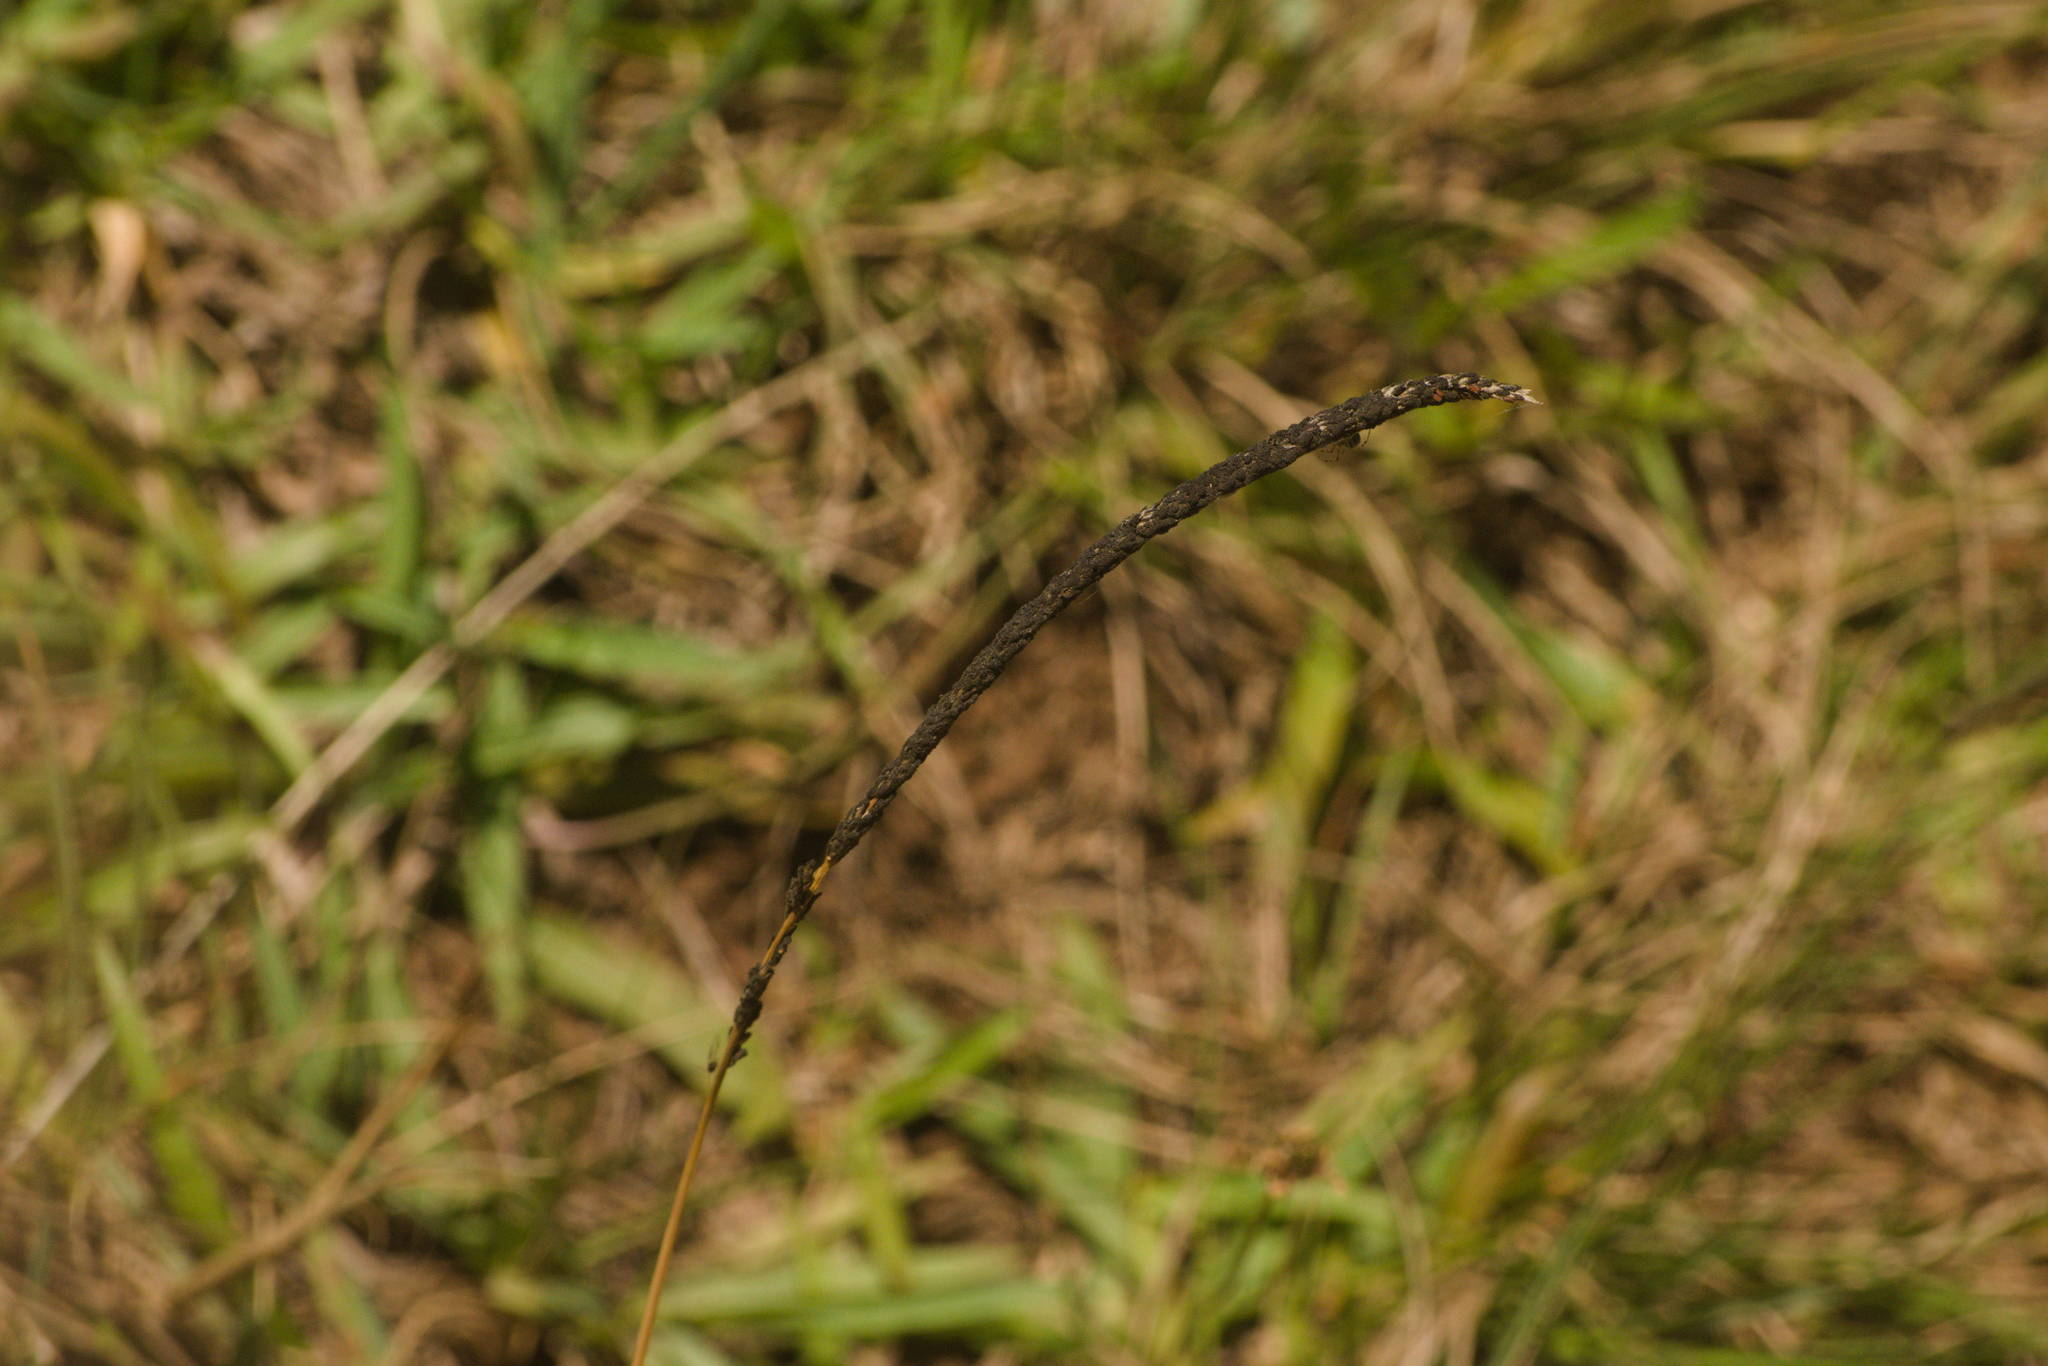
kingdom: Fungi
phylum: Ascomycota
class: Dothideomycetes
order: Pleosporales
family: Pleosporaceae
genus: Curvularia
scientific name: Curvularia ravenelii
